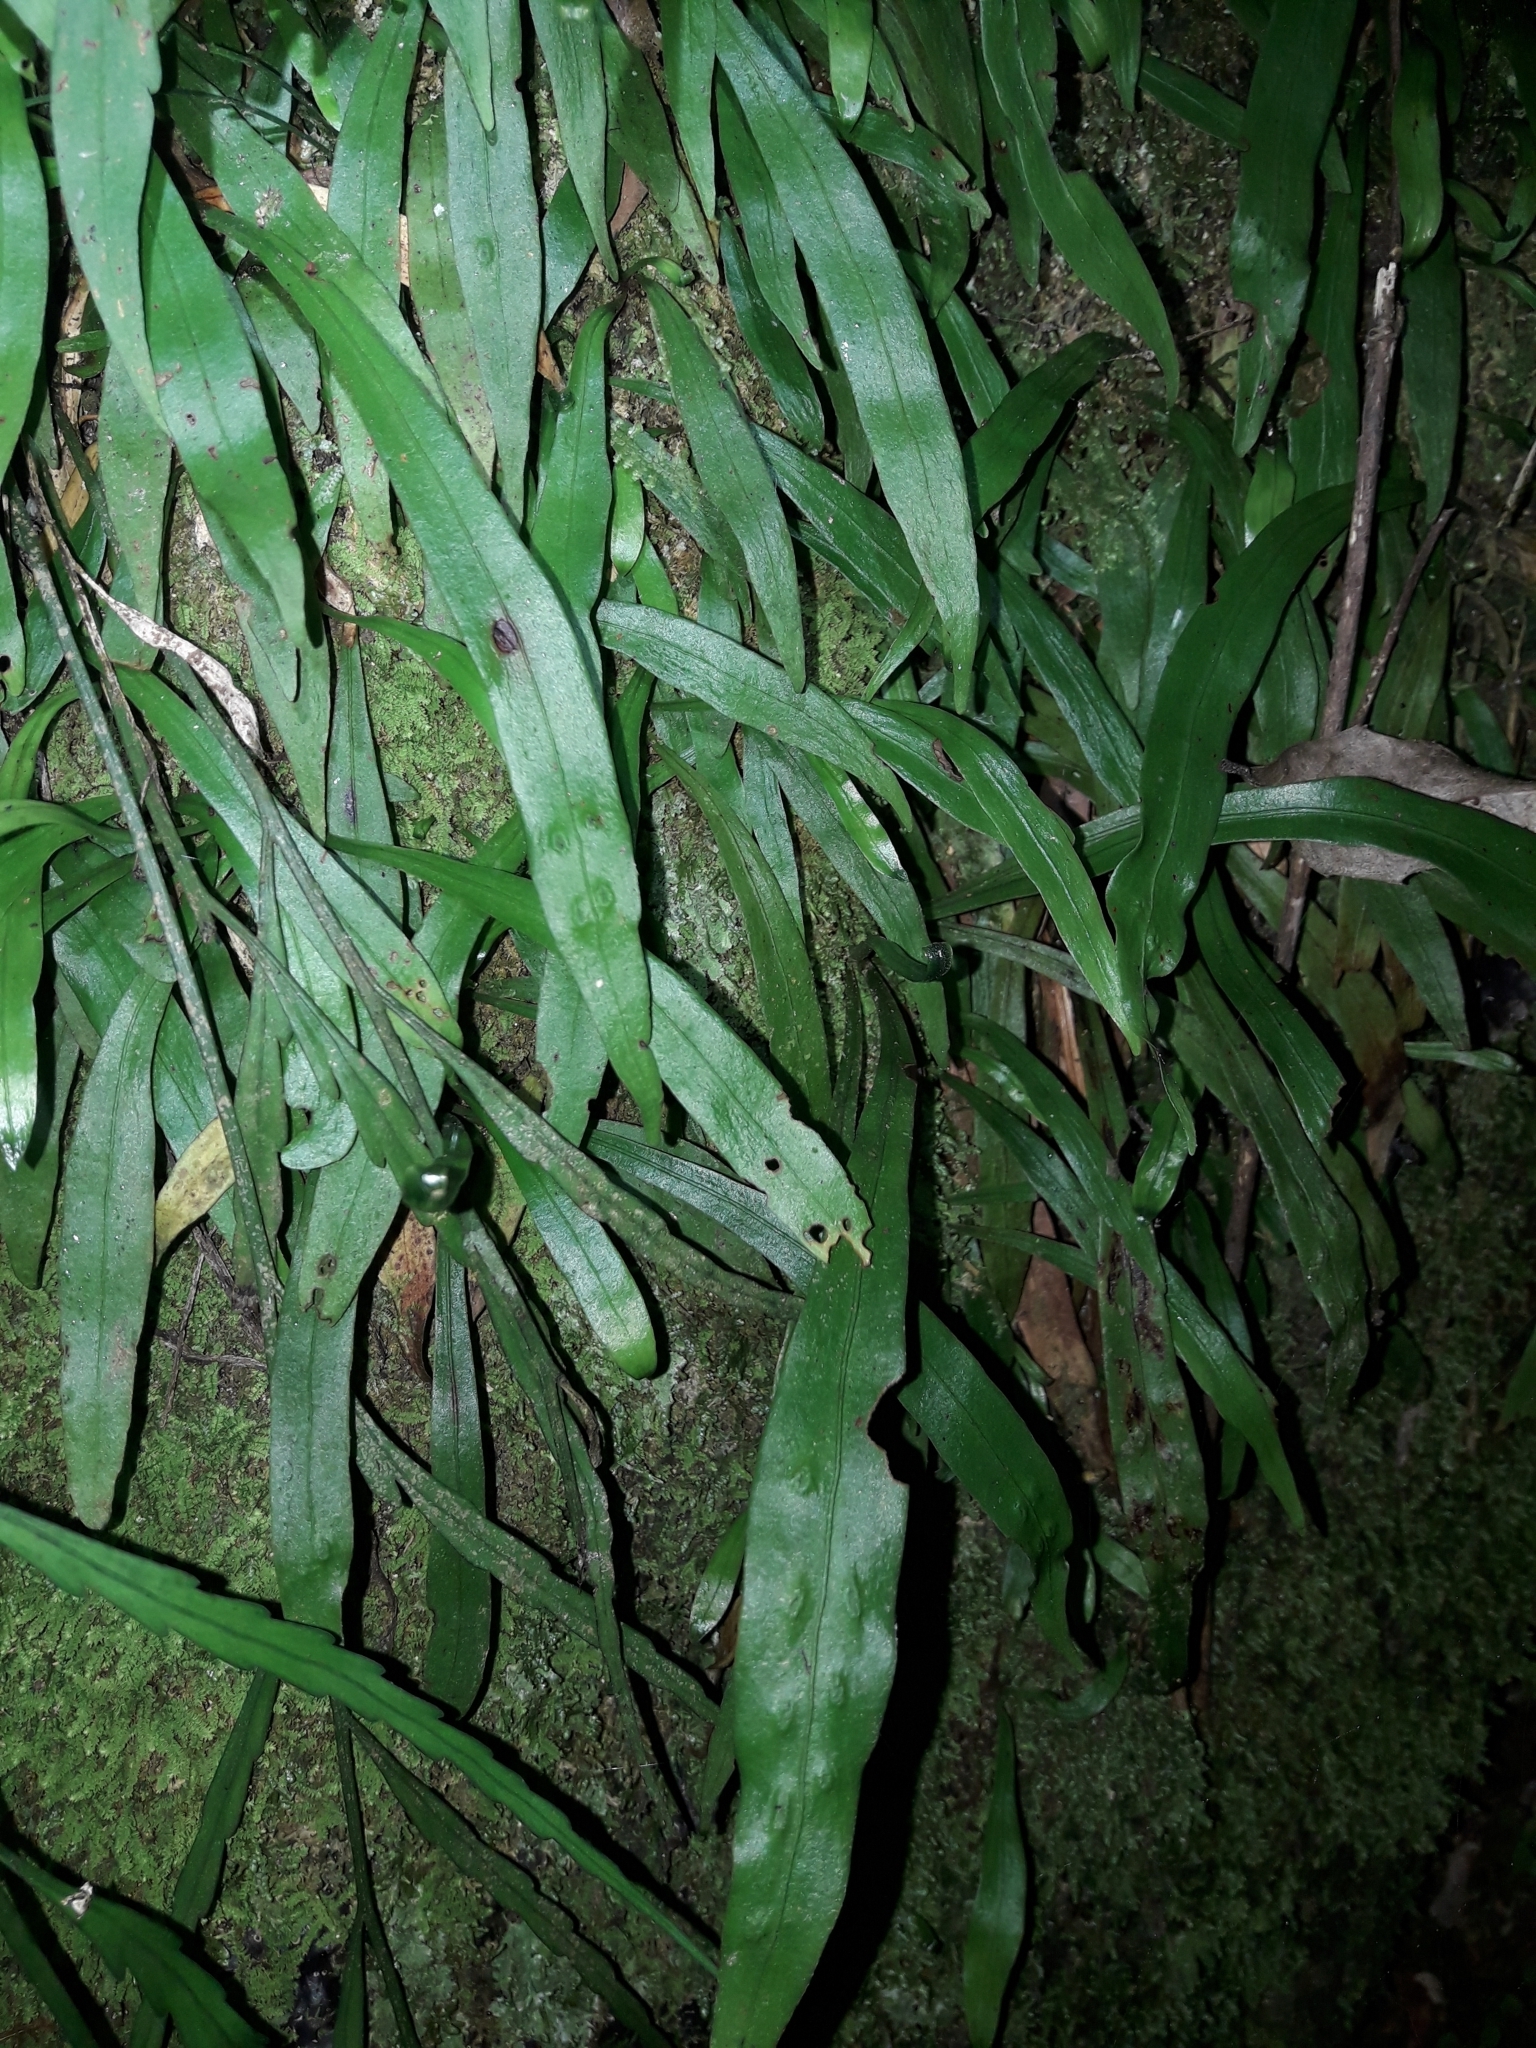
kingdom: Plantae
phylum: Tracheophyta
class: Polypodiopsida
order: Polypodiales
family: Polypodiaceae
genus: Loxogramme
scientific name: Loxogramme dictyopteris
